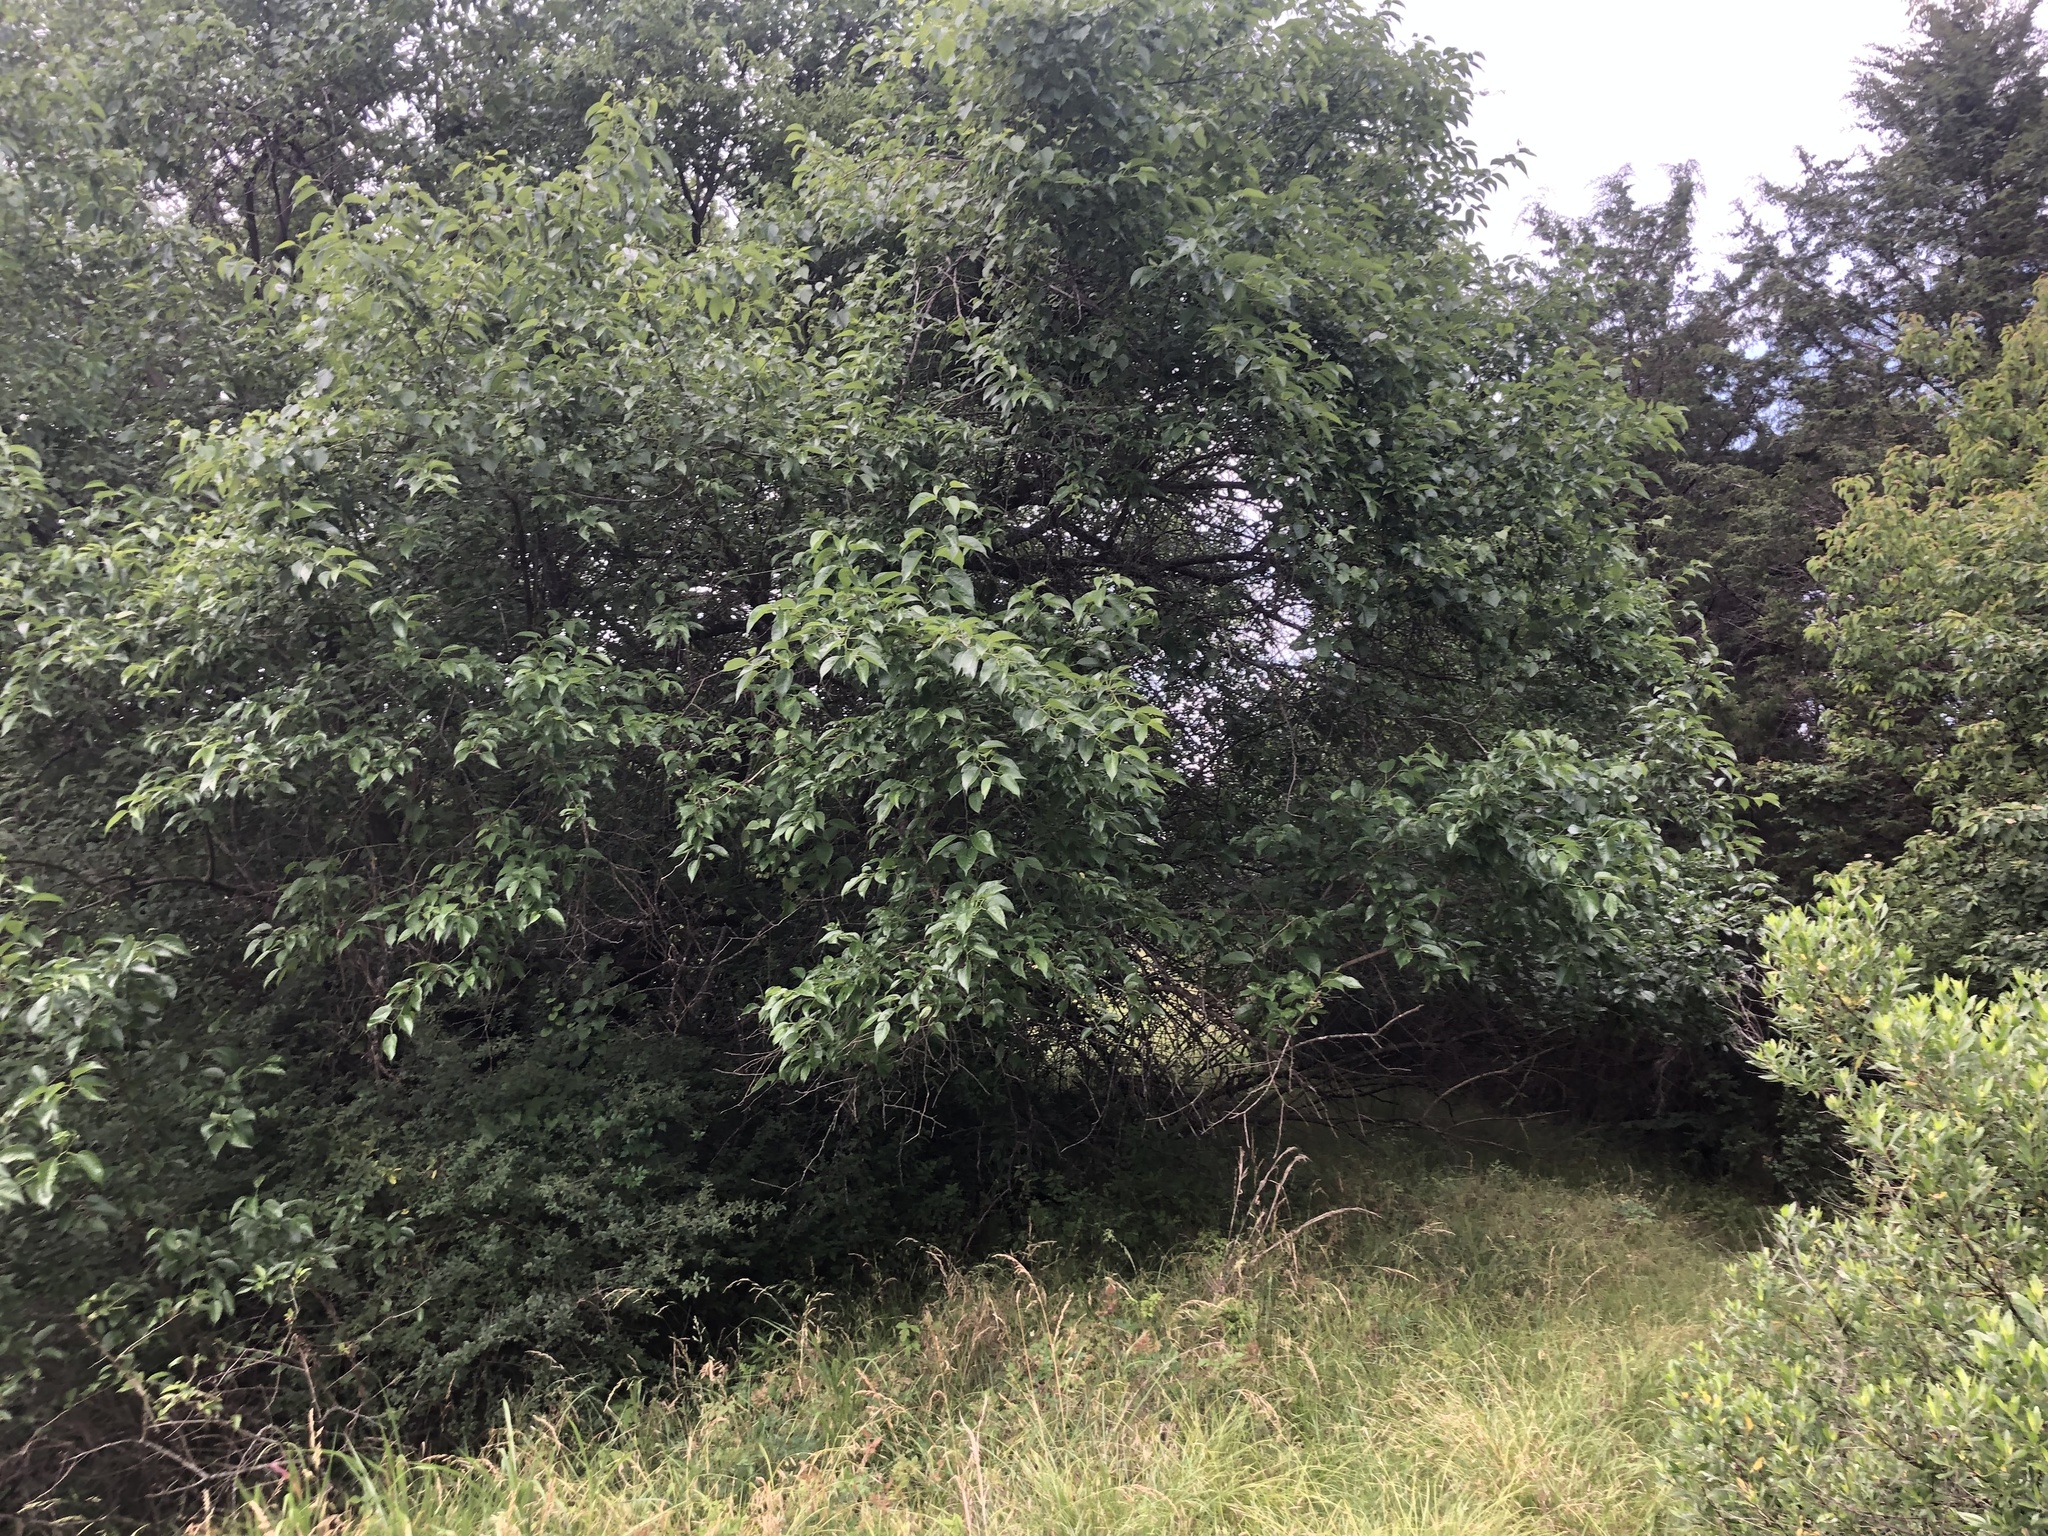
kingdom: Plantae
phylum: Tracheophyta
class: Magnoliopsida
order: Cornales
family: Cornaceae
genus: Cornus
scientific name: Cornus drummondii
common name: Rough-leaf dogwood
